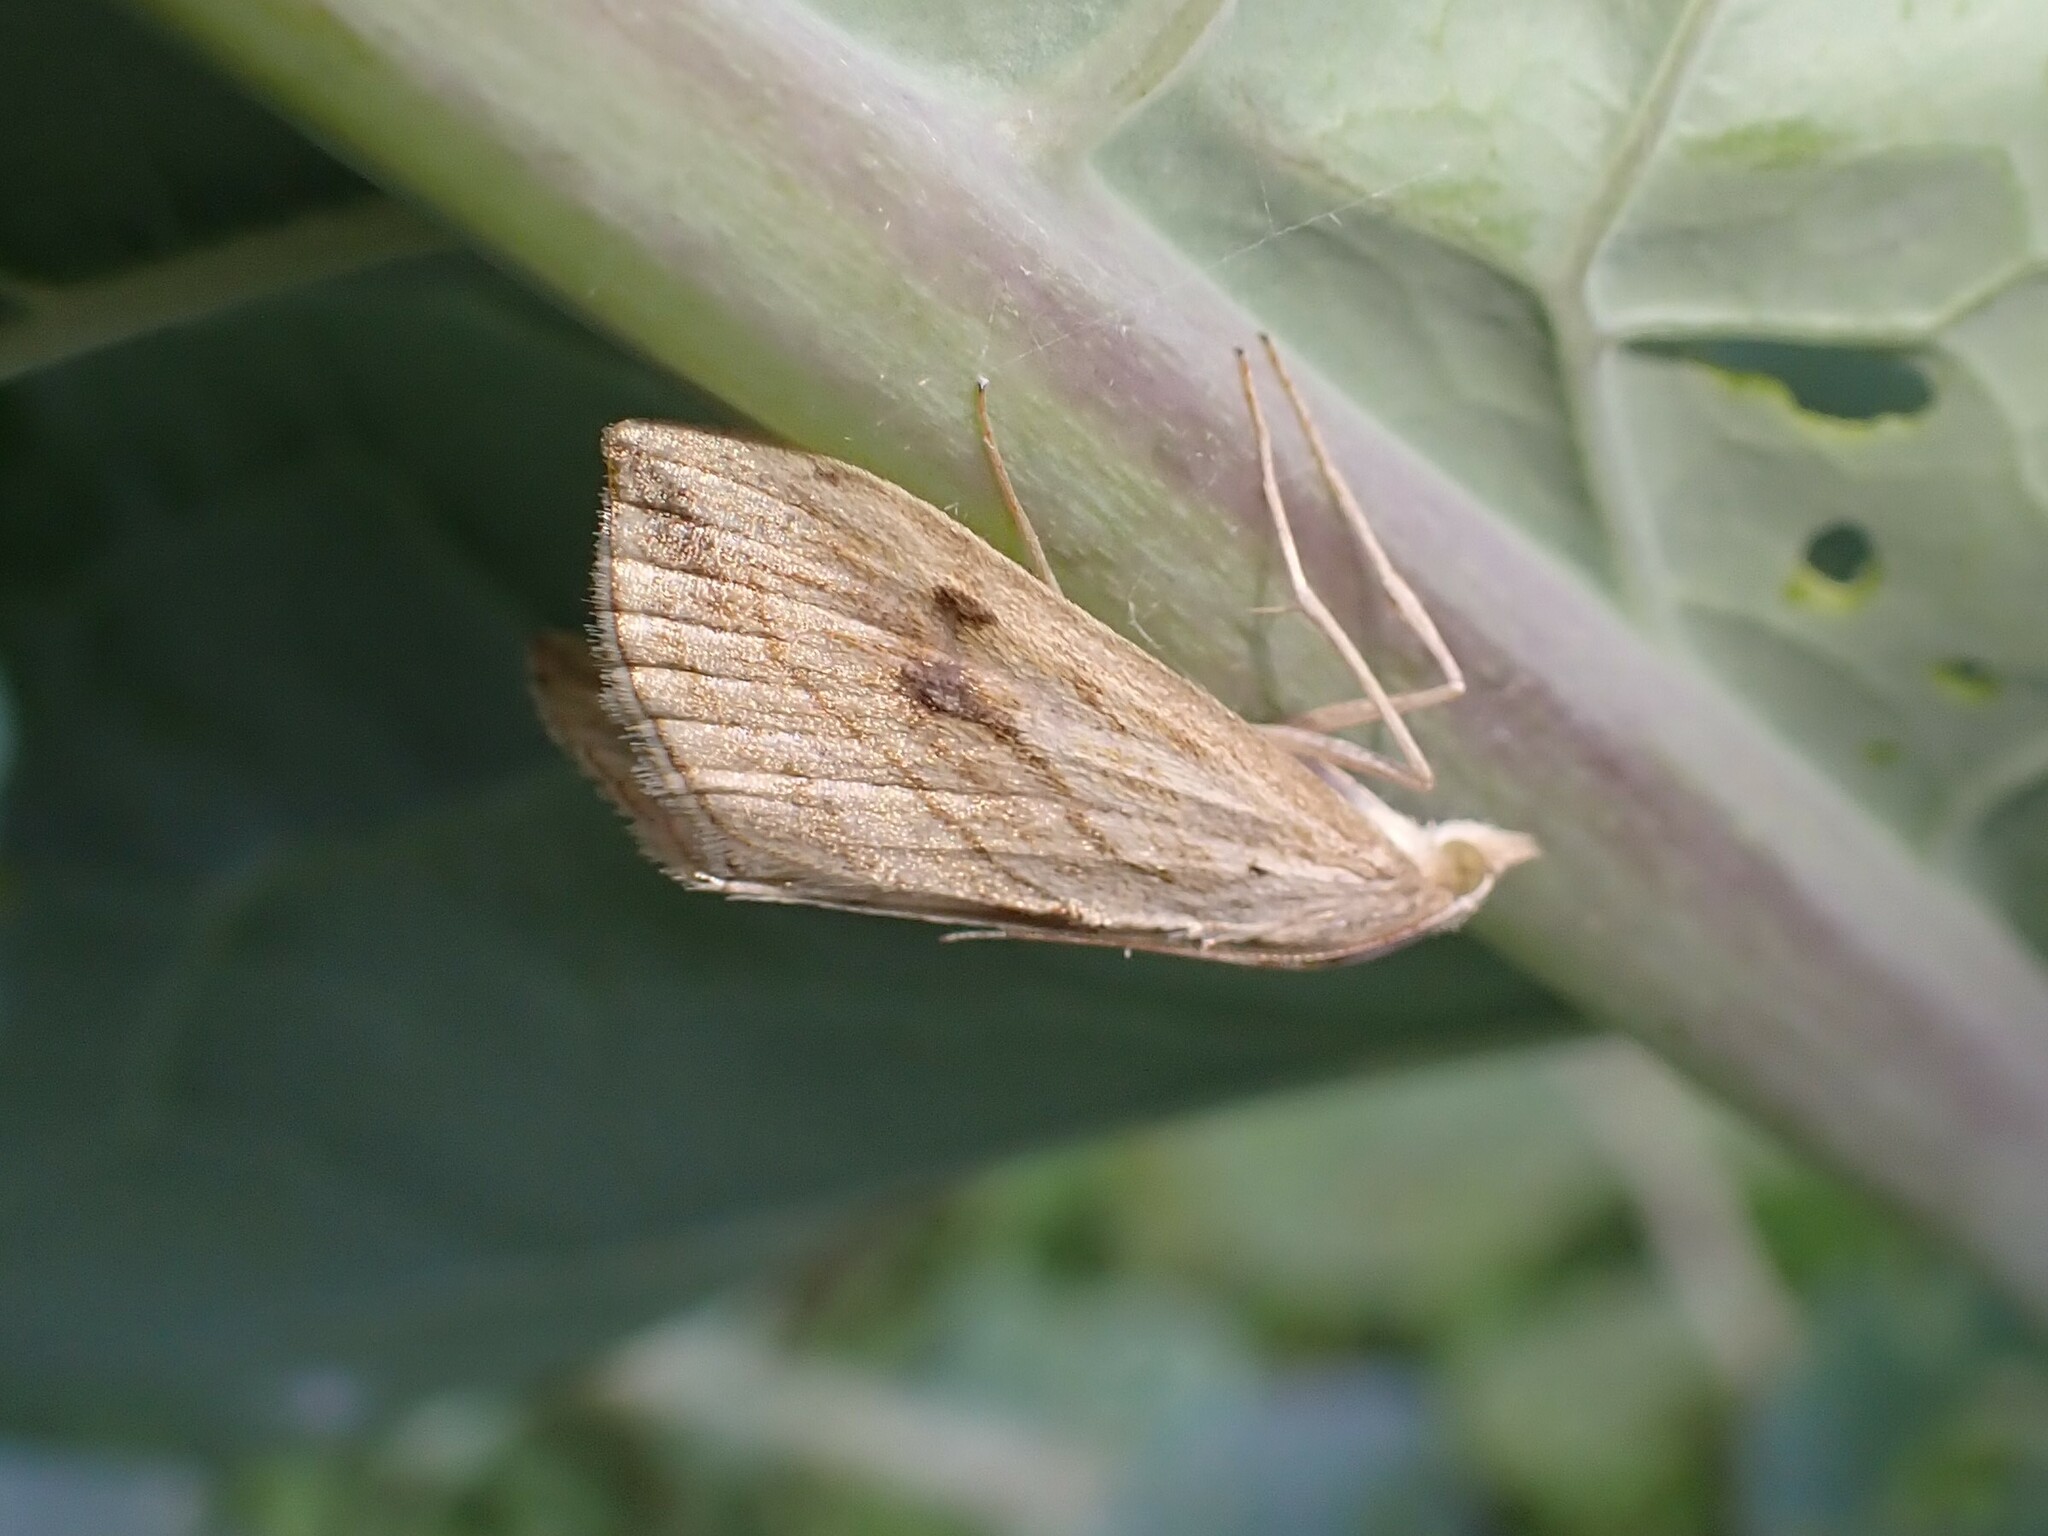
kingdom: Animalia
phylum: Arthropoda
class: Insecta
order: Lepidoptera
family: Crambidae
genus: Evergestis
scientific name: Evergestis forficalis
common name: Garden pebble
